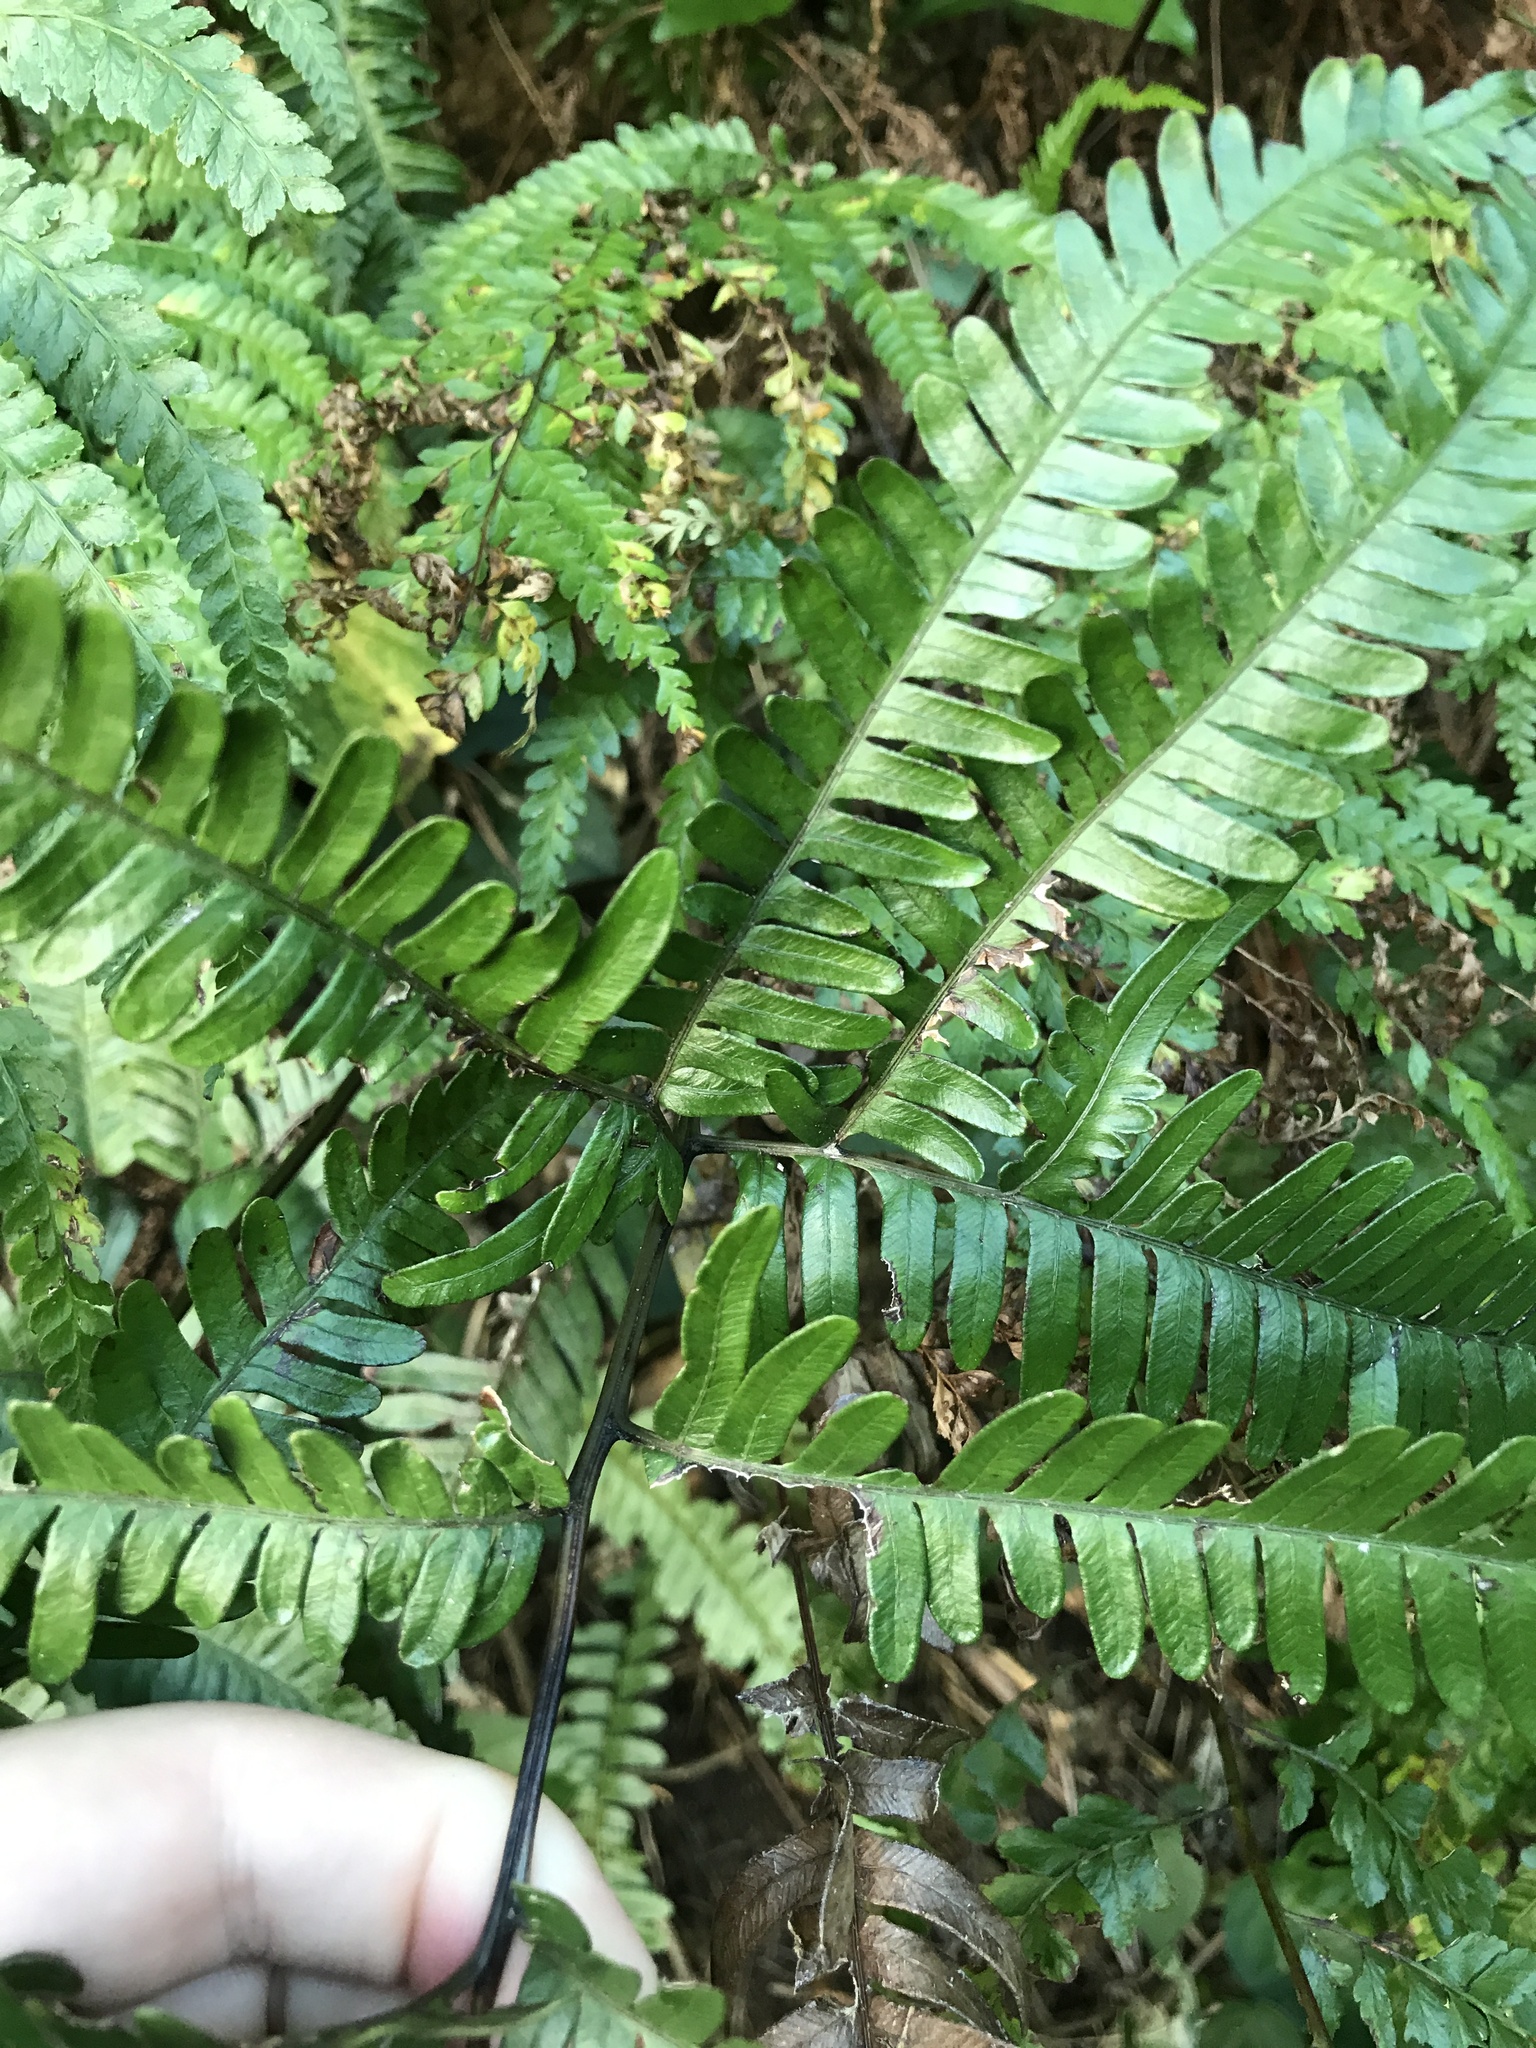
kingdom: Plantae
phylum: Tracheophyta
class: Polypodiopsida
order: Polypodiales
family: Pteridaceae
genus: Pteris
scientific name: Pteris fauriei
